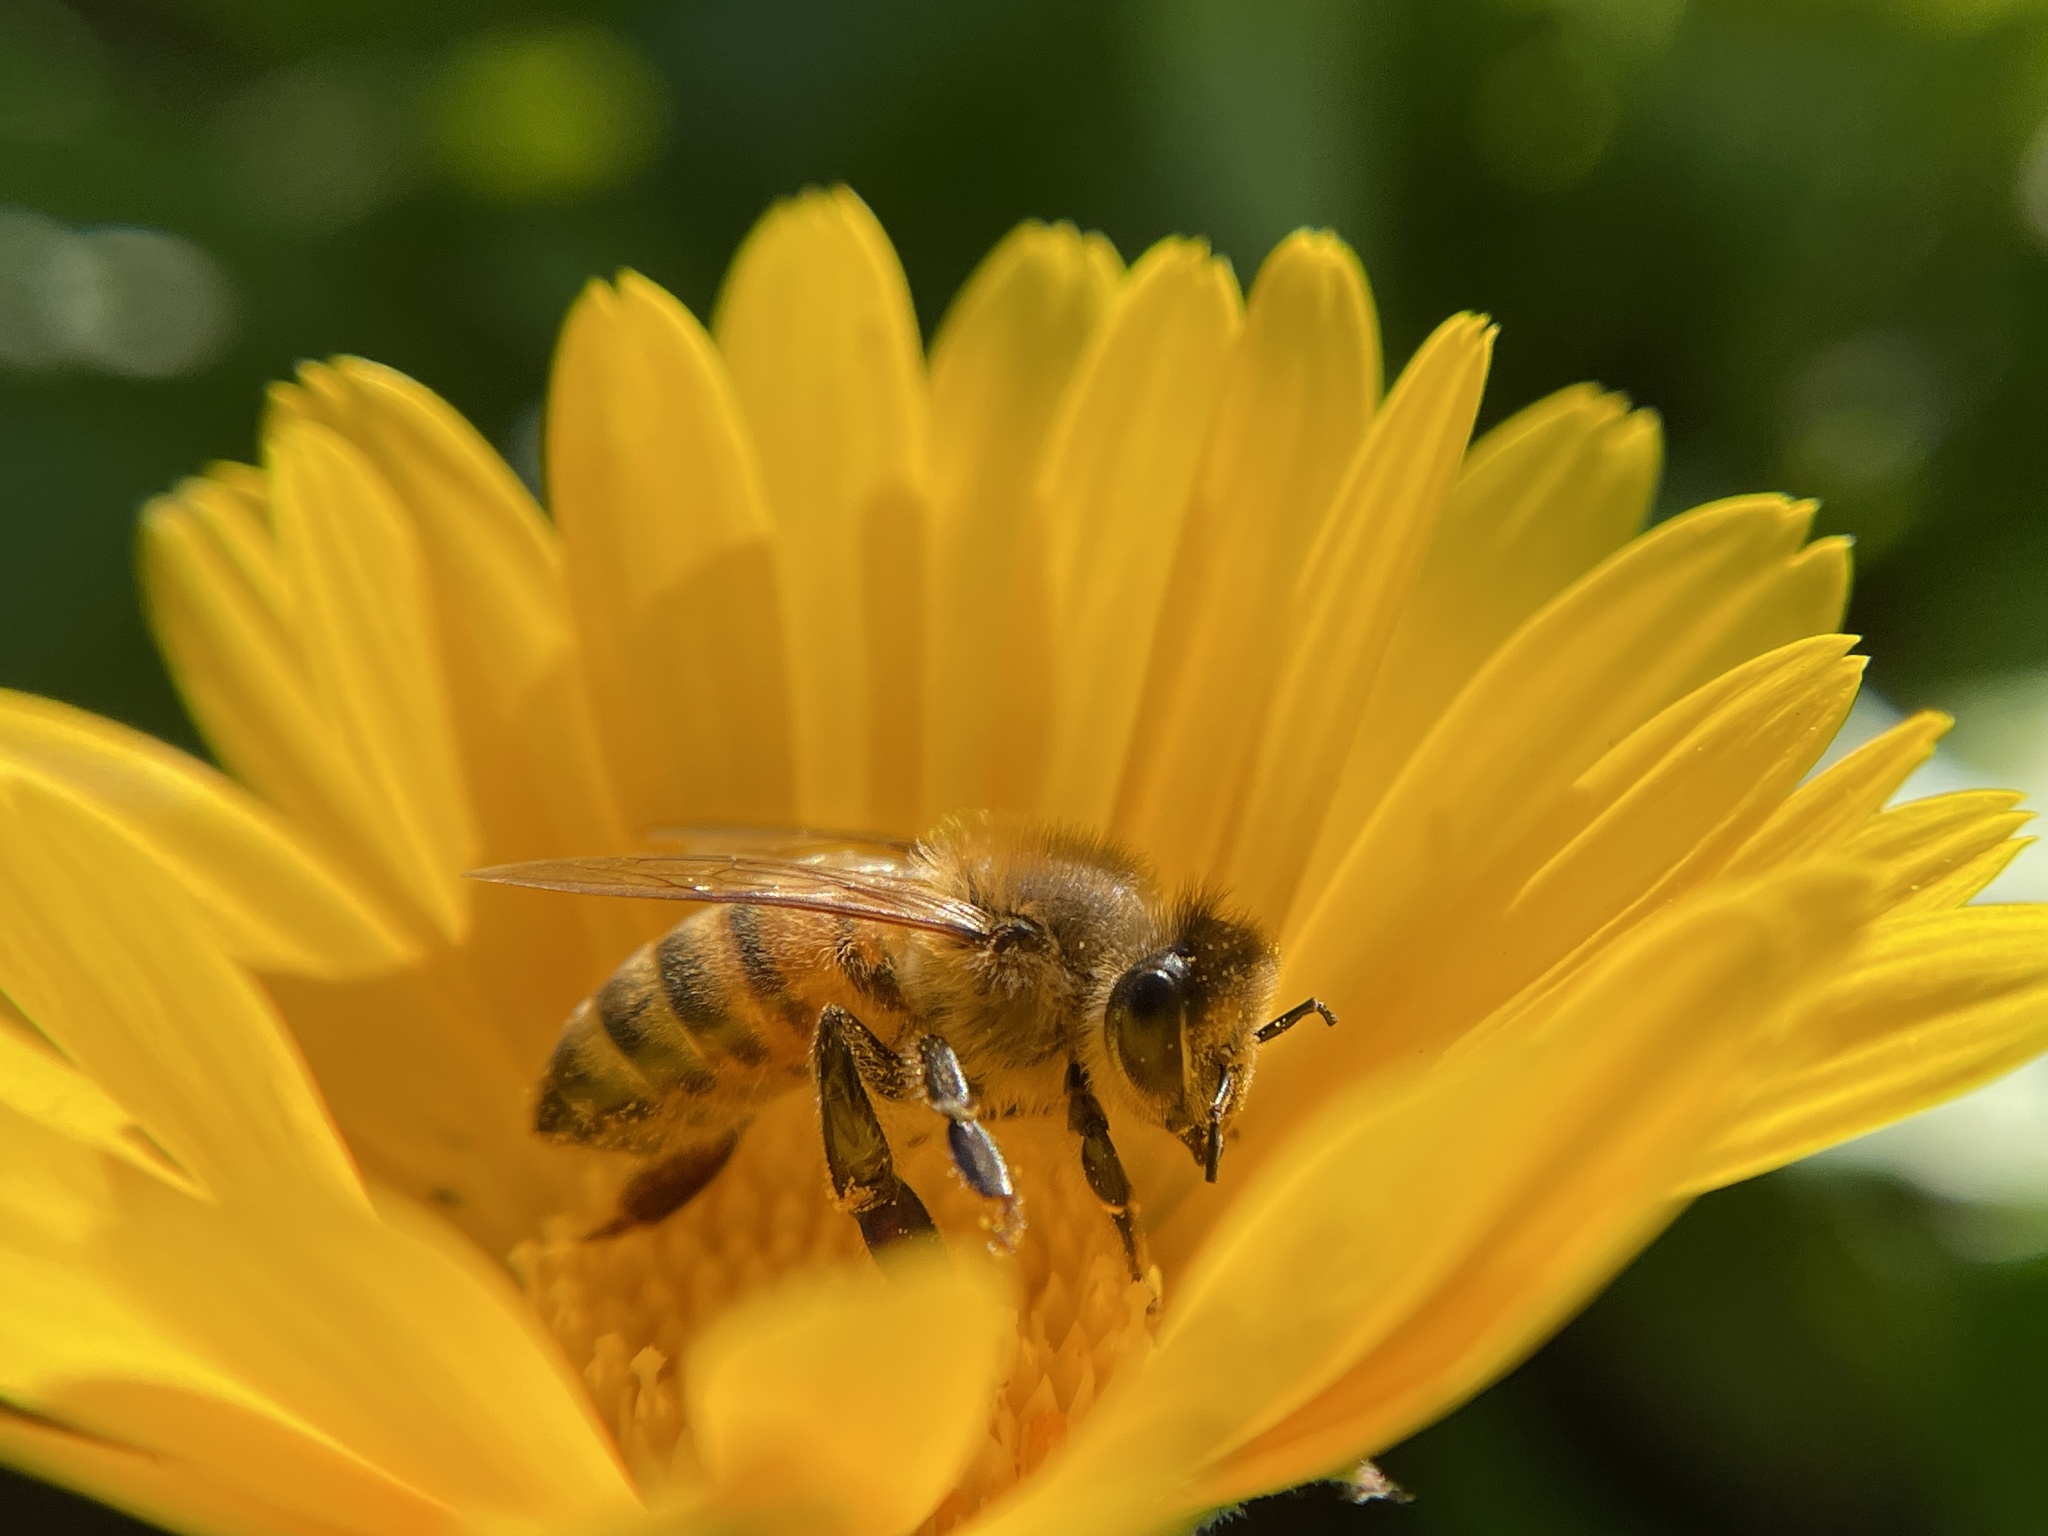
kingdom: Animalia
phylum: Arthropoda
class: Insecta
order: Hymenoptera
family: Apidae
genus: Apis
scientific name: Apis mellifera
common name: Honey bee
